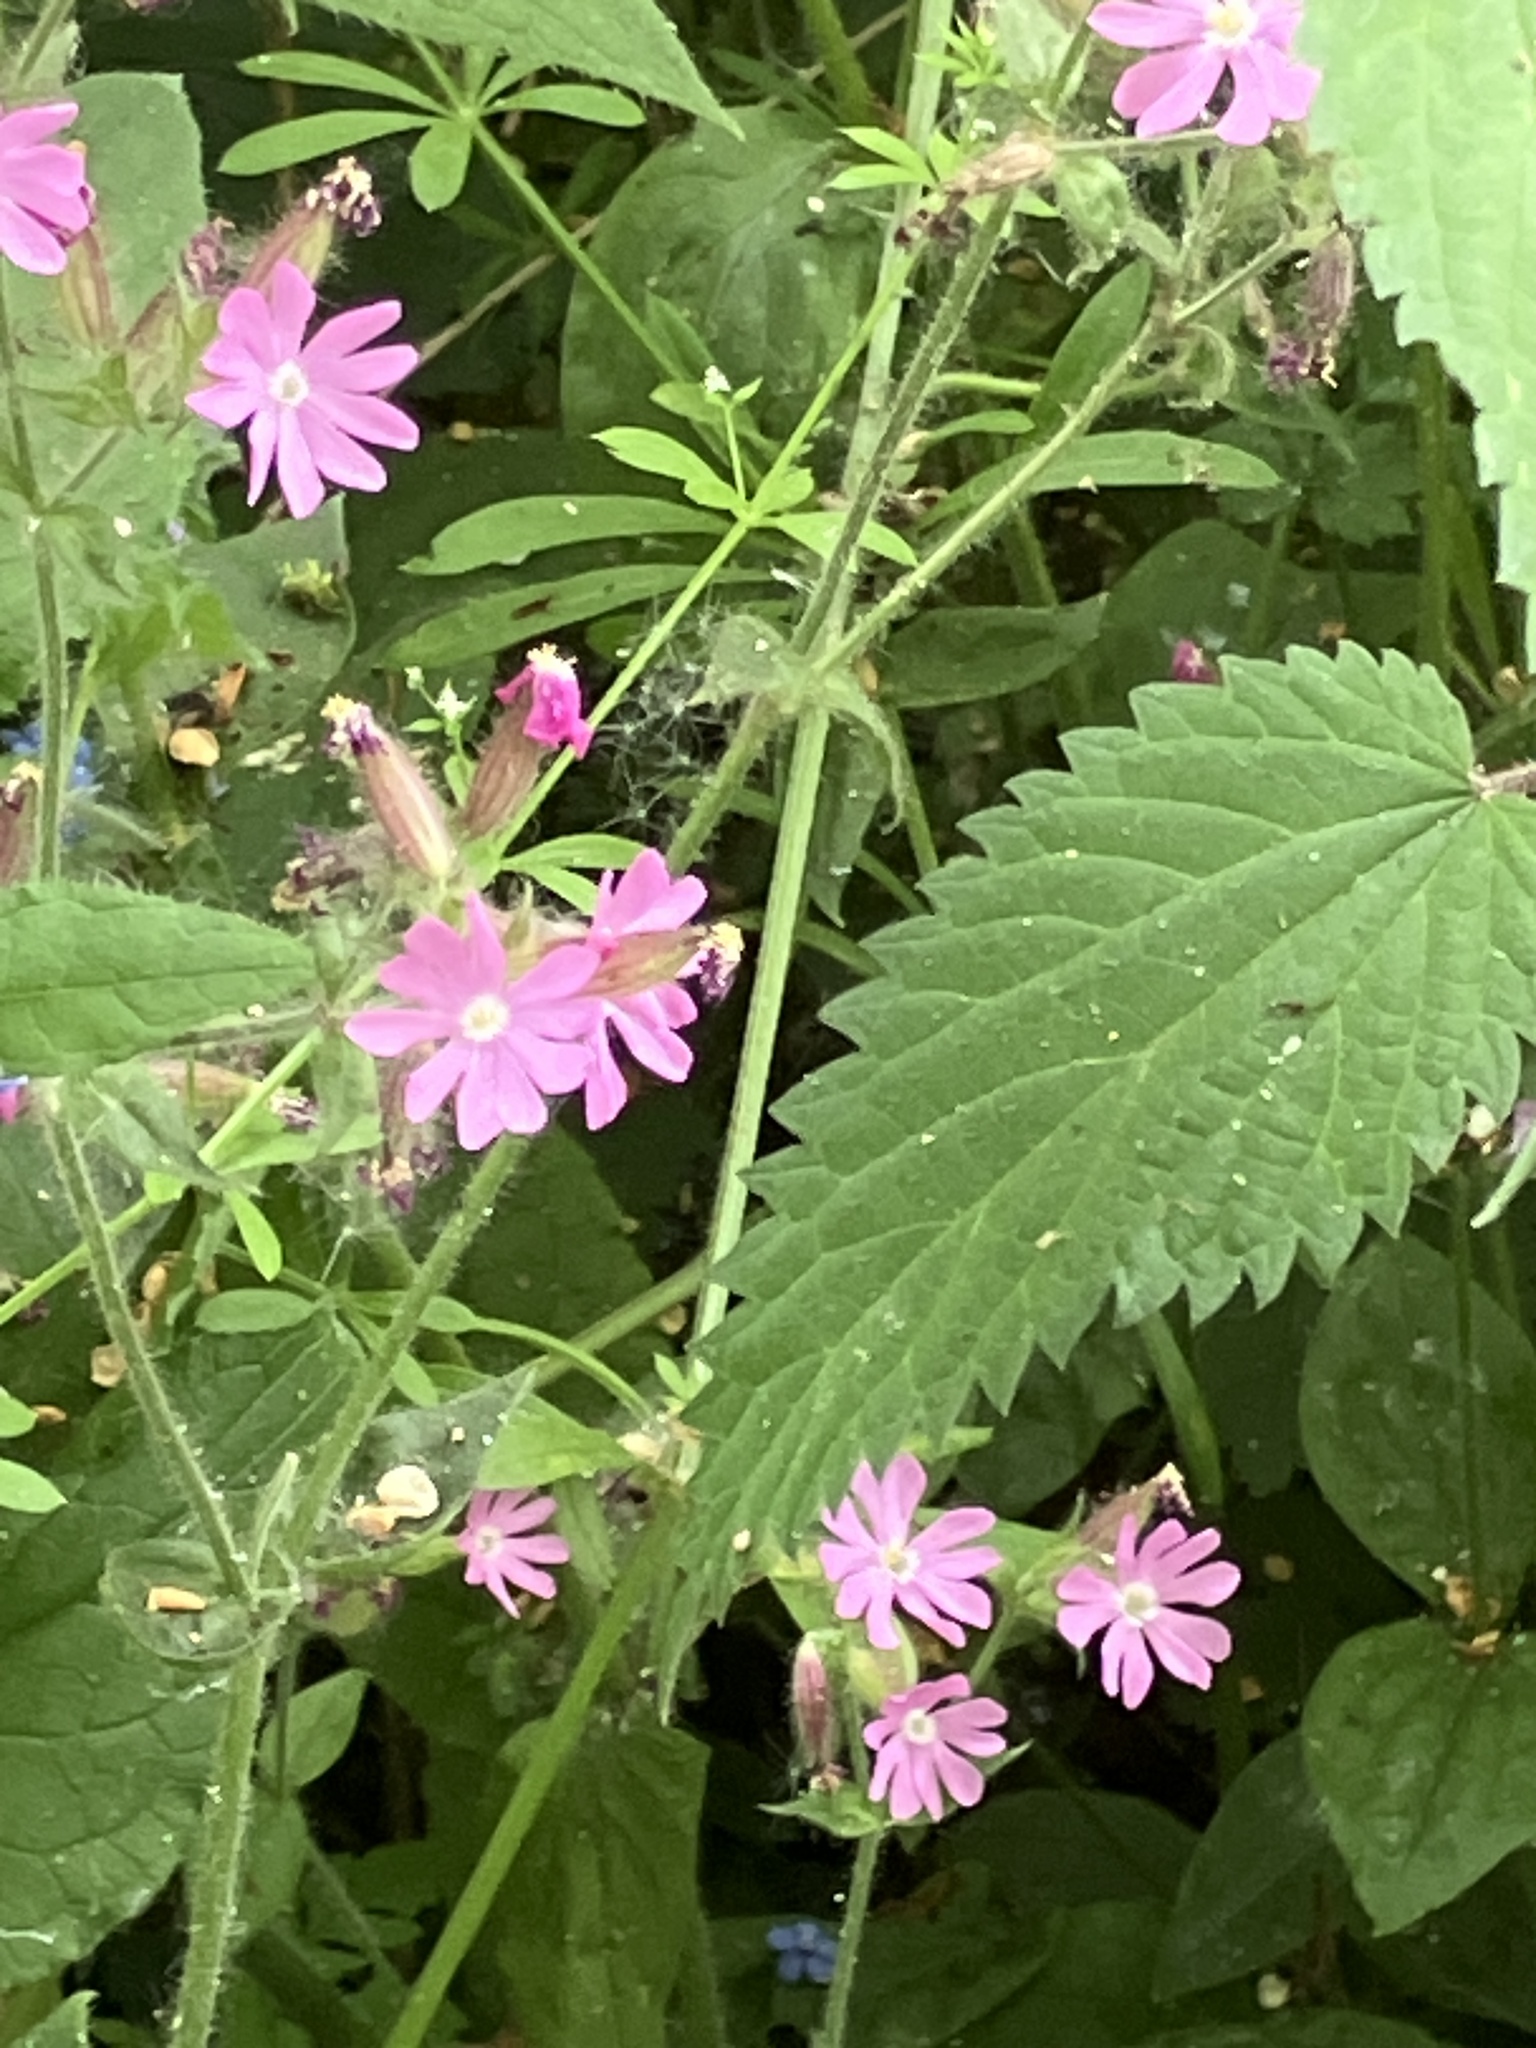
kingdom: Plantae
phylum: Tracheophyta
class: Magnoliopsida
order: Caryophyllales
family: Caryophyllaceae
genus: Silene
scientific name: Silene dioica
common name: Red campion
